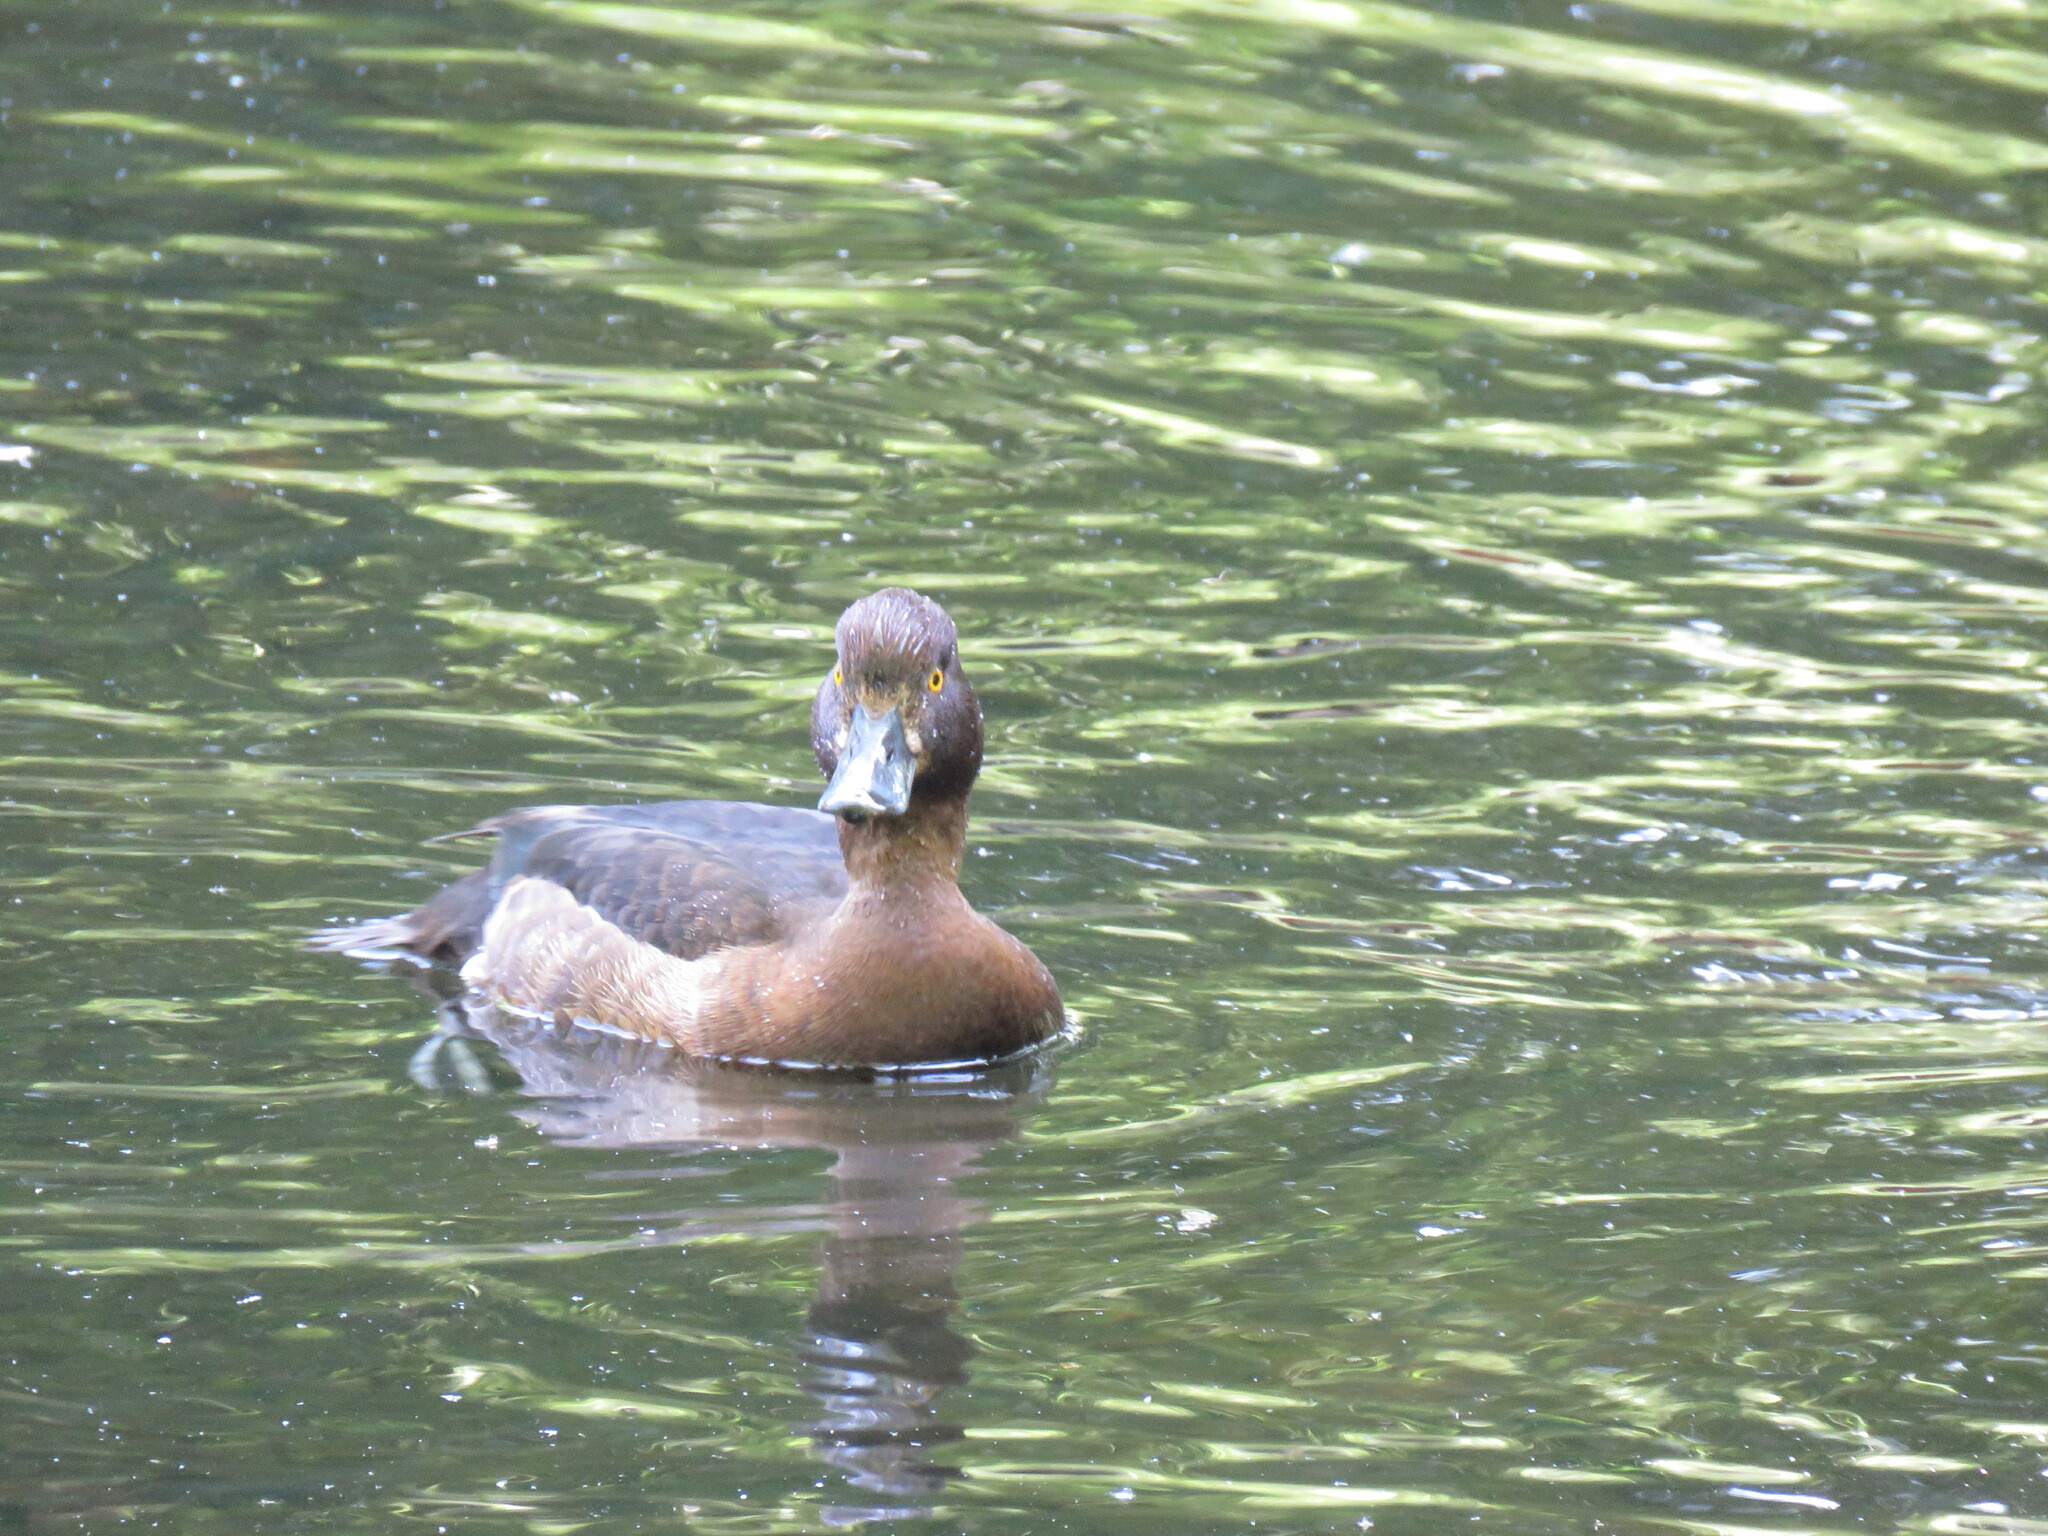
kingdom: Animalia
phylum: Chordata
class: Aves
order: Anseriformes
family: Anatidae
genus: Aythya
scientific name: Aythya fuligula
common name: Tufted duck
